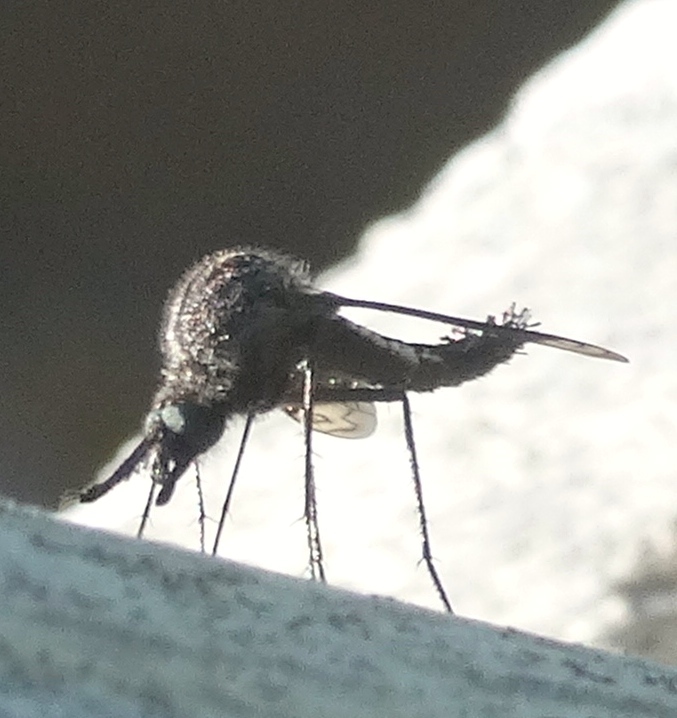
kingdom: Animalia
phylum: Arthropoda
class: Insecta
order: Diptera
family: Bombyliidae
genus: Lepidophora
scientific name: Lepidophora vetusta
